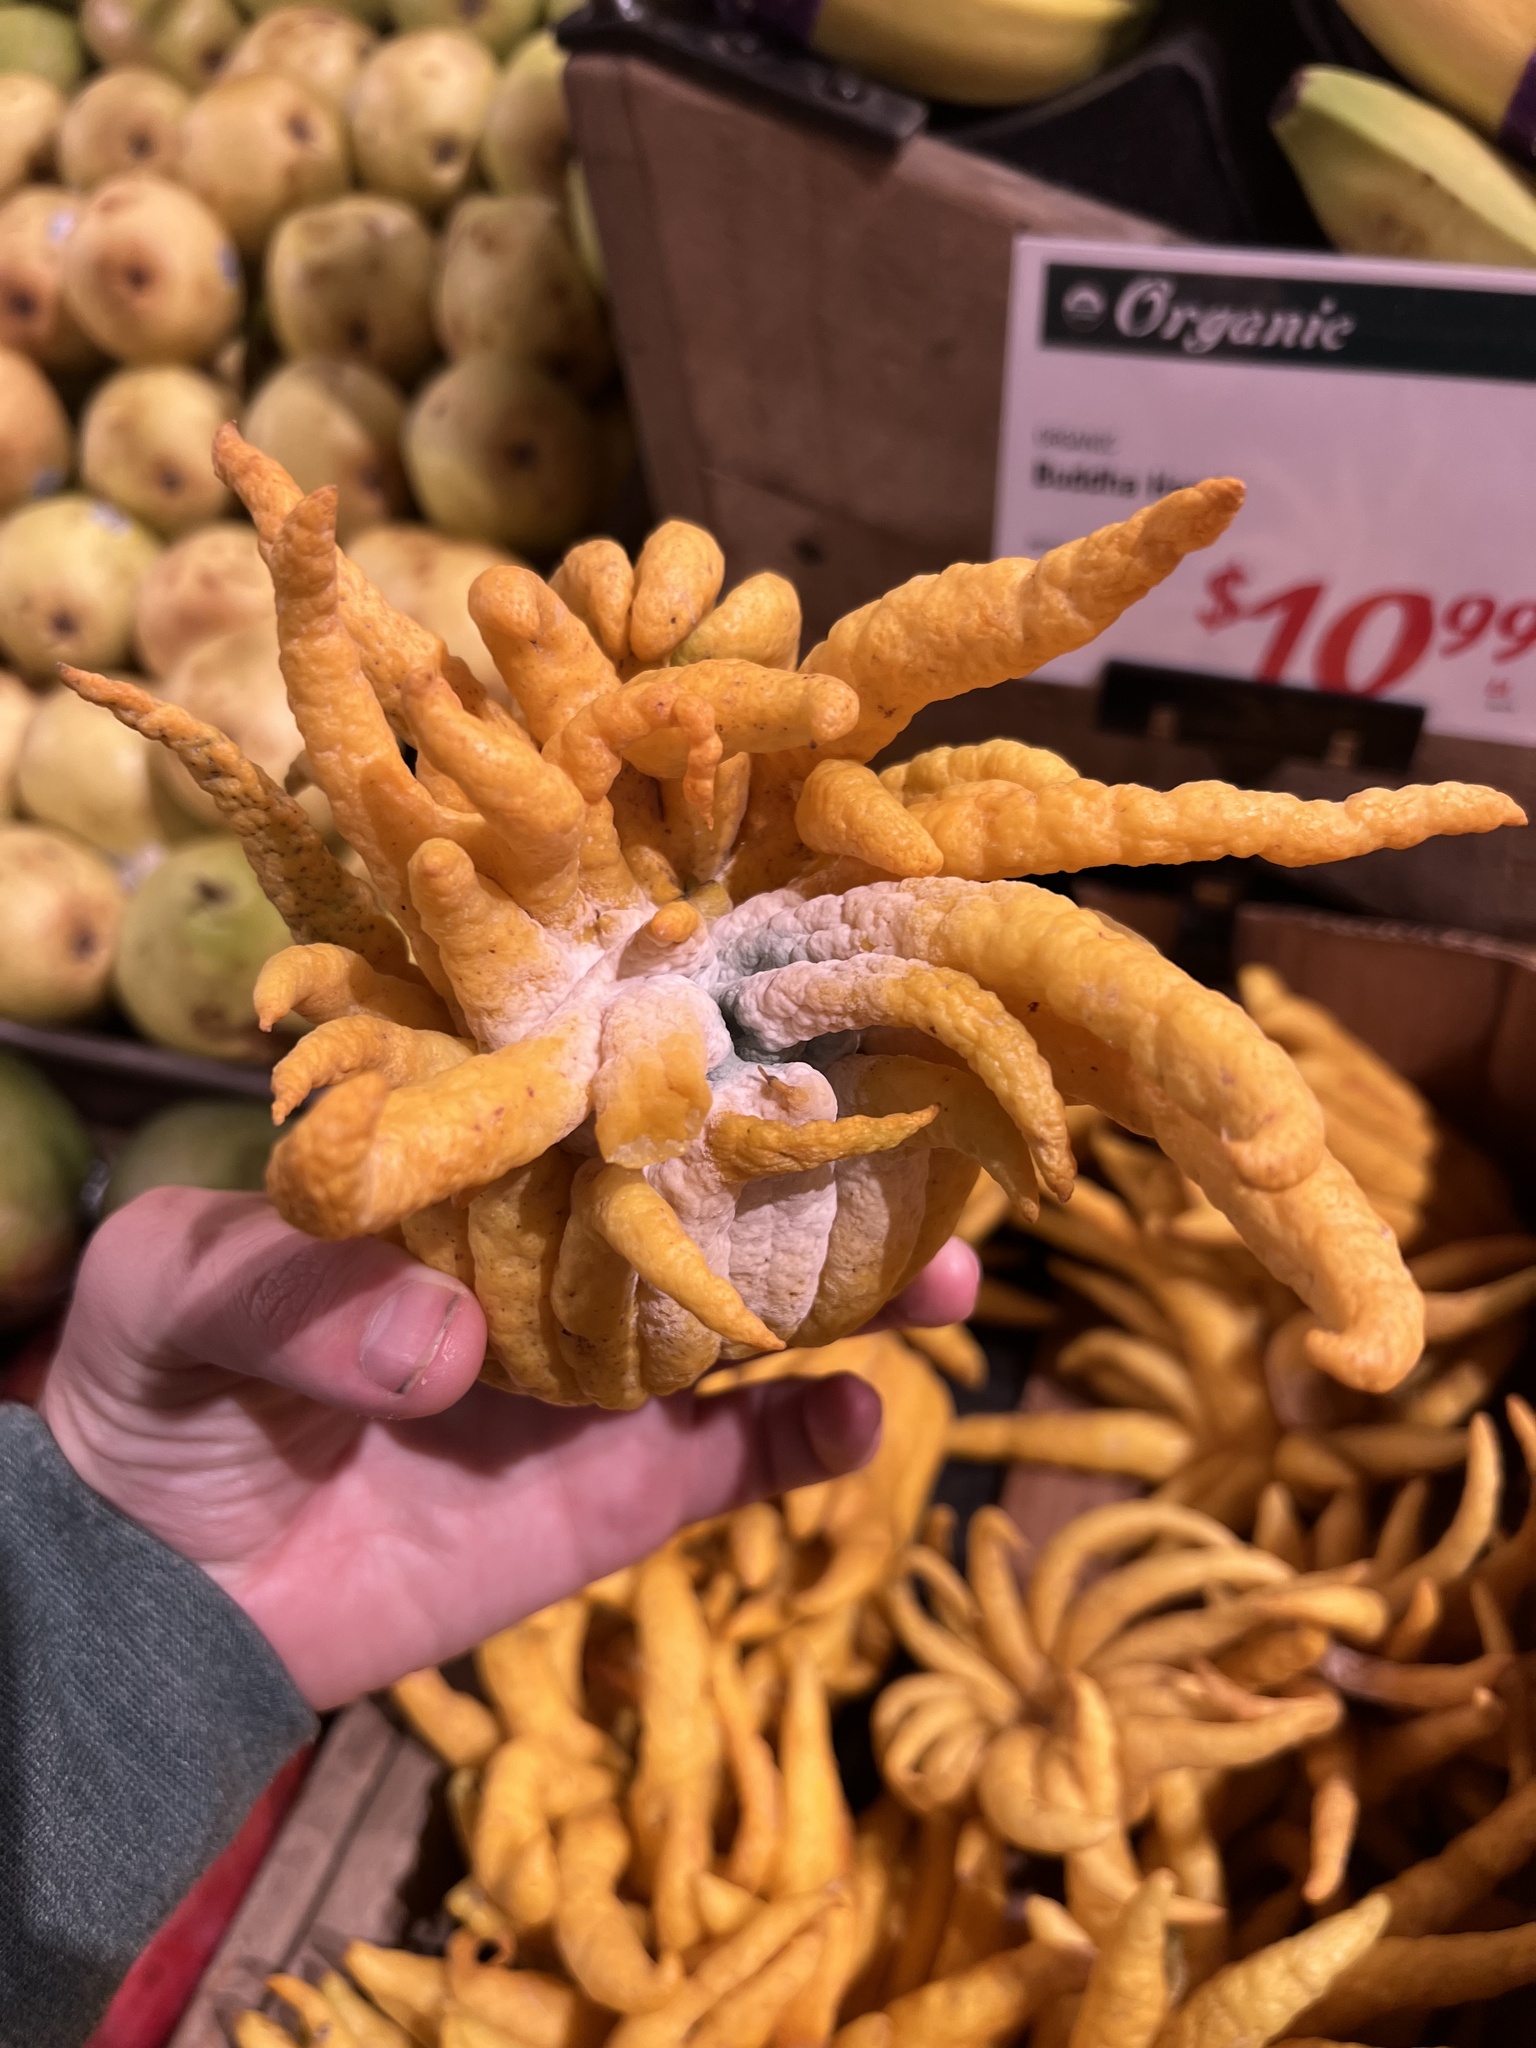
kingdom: Fungi
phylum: Ascomycota
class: Eurotiomycetes
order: Eurotiales
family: Aspergillaceae
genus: Penicillium
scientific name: Penicillium digitatum
